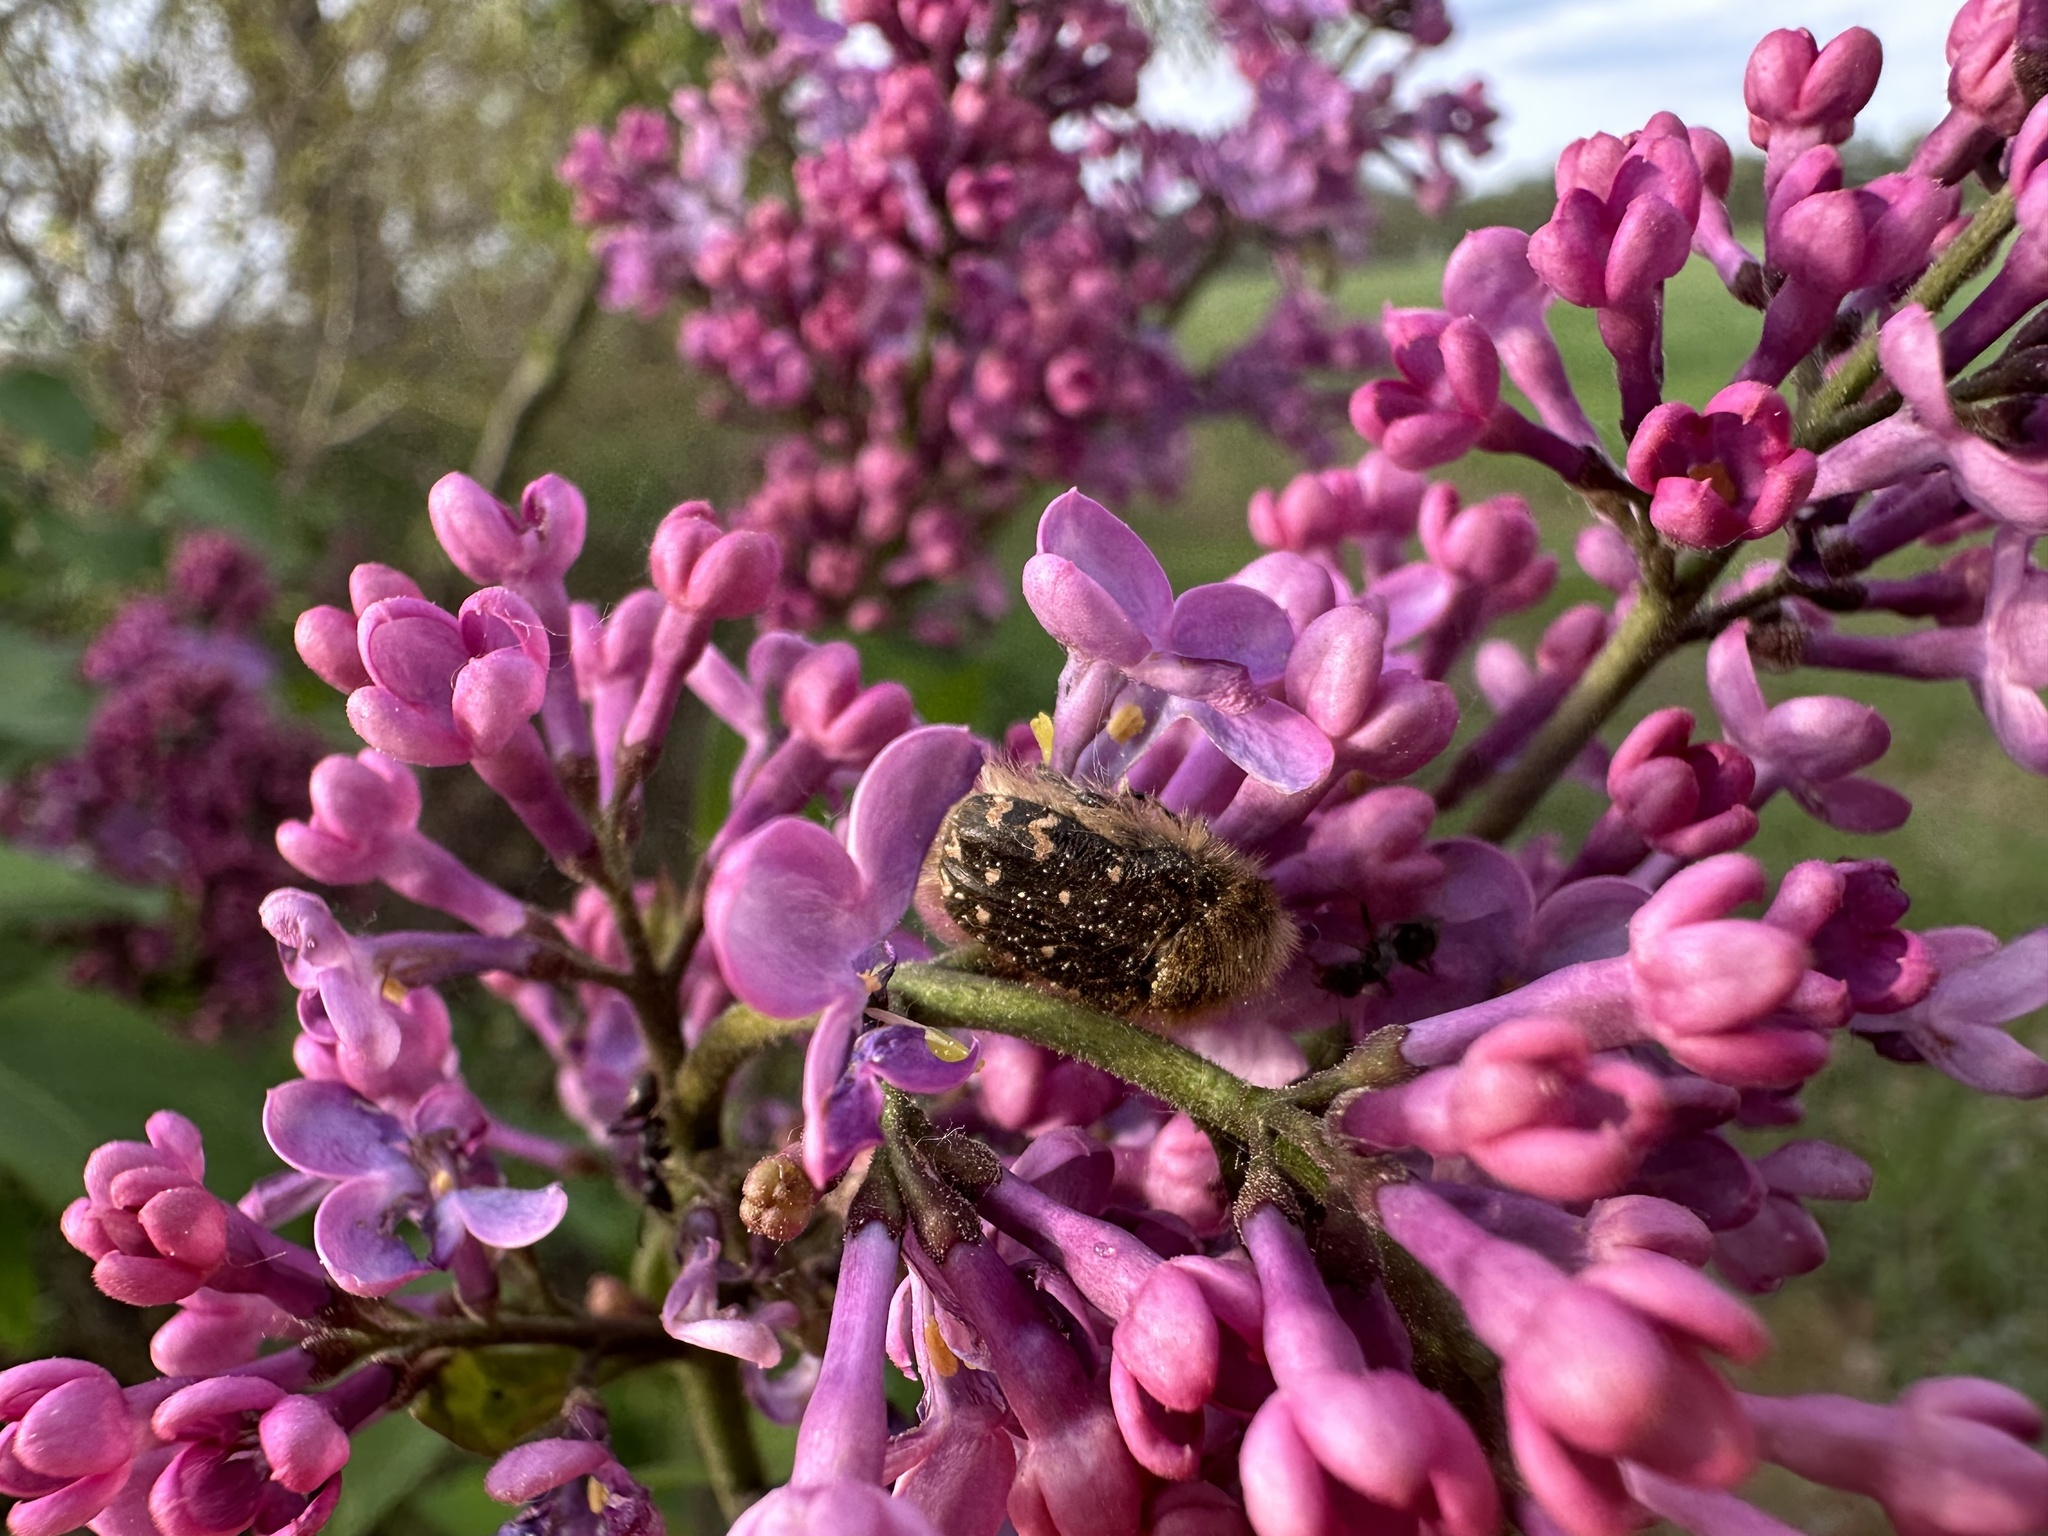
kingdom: Animalia
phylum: Arthropoda
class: Insecta
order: Coleoptera
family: Scarabaeidae
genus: Tropinota
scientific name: Tropinota hirta
